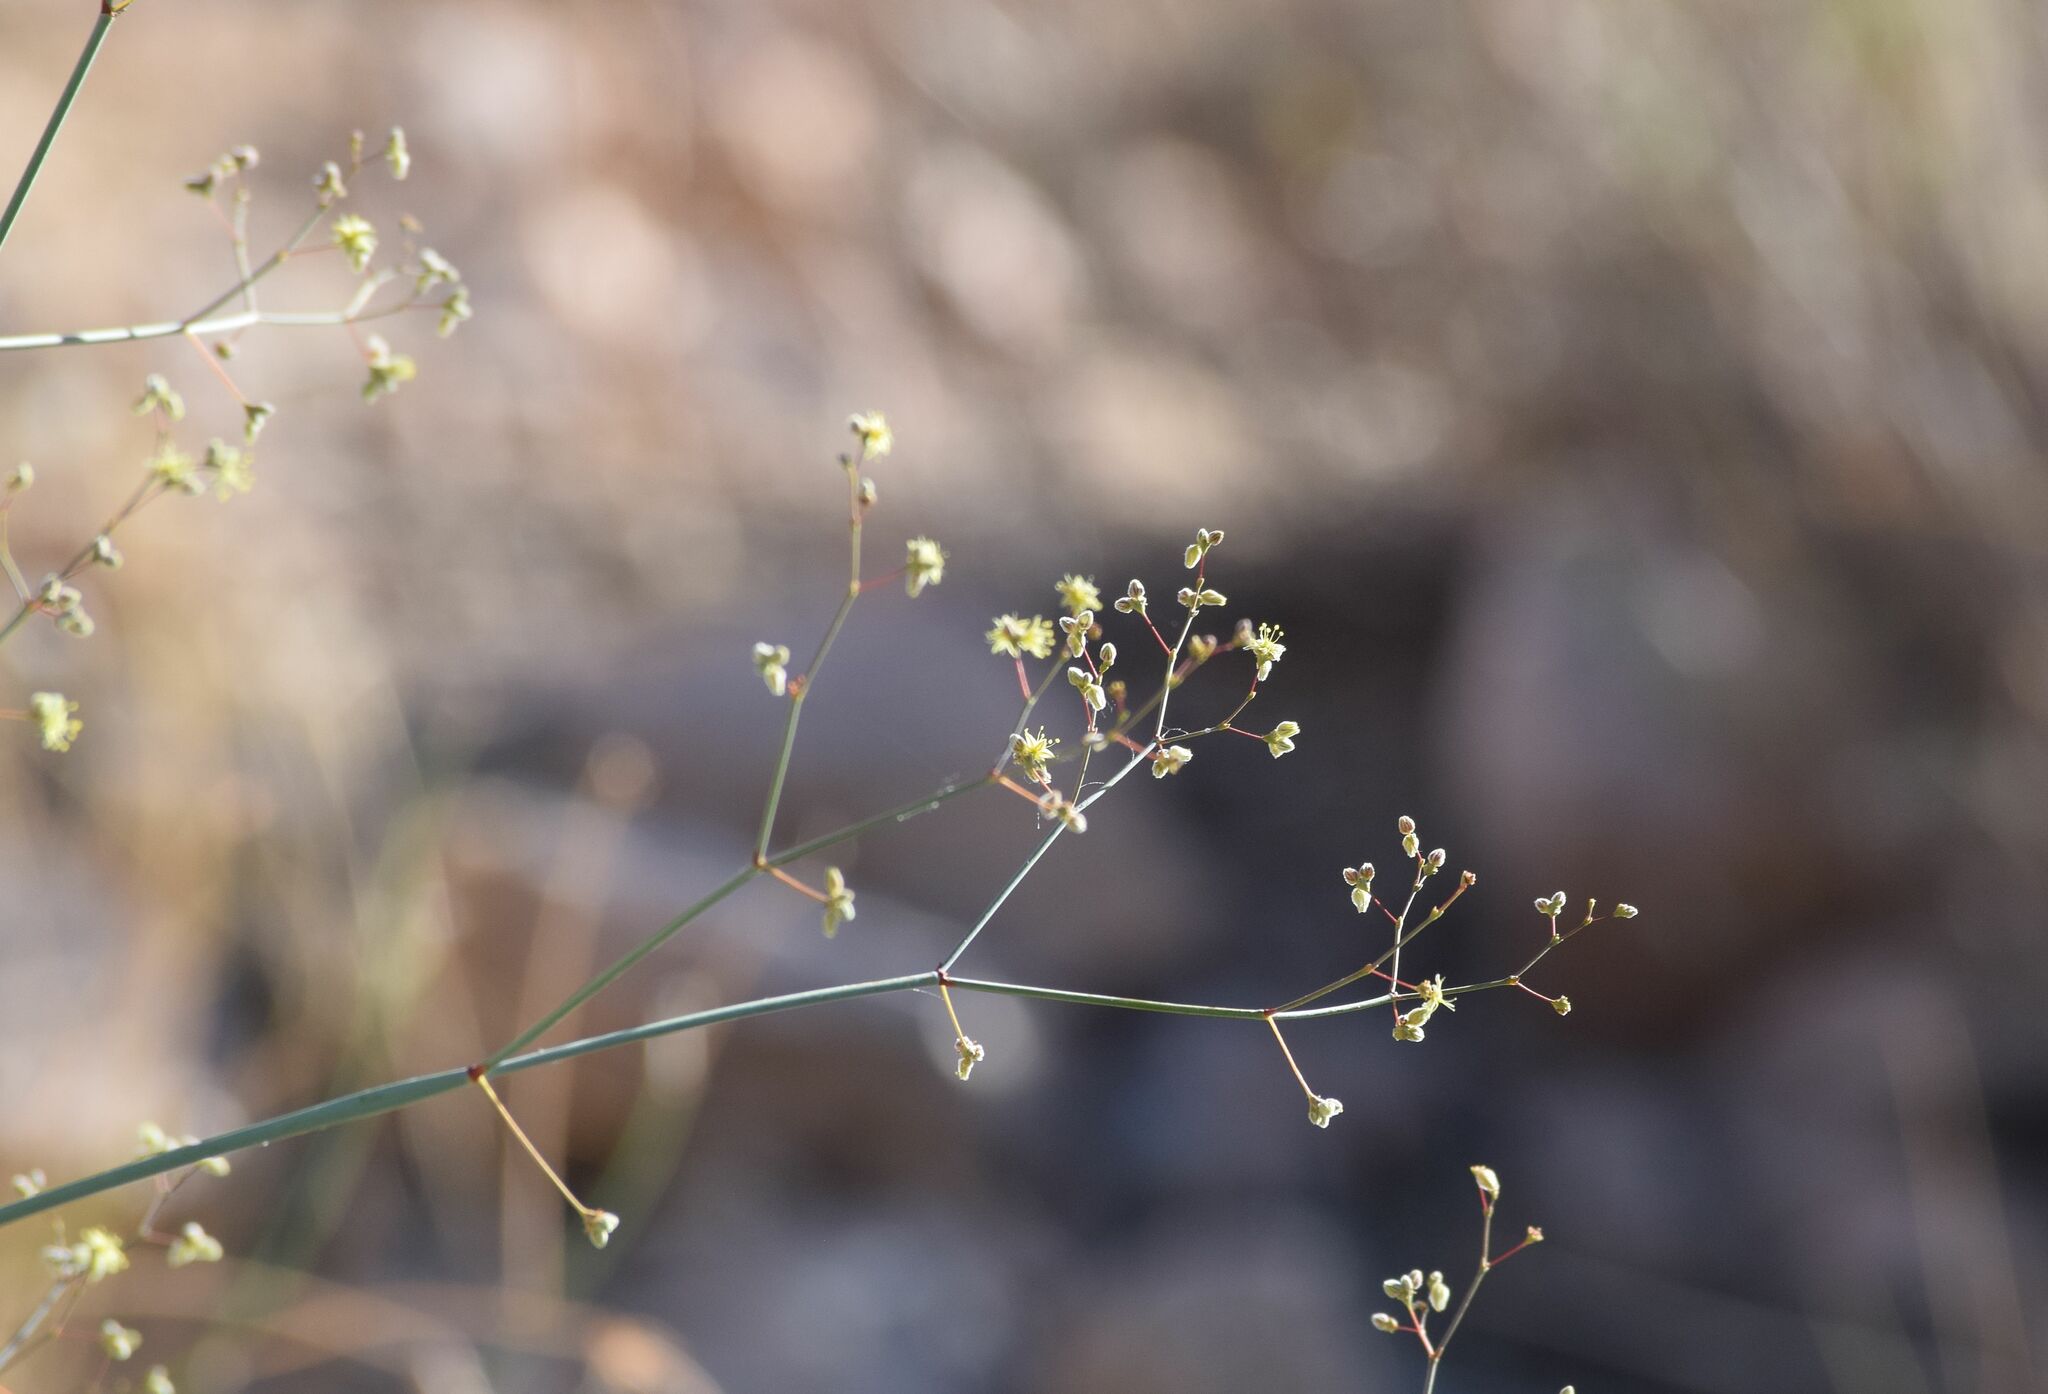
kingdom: Plantae
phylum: Tracheophyta
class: Magnoliopsida
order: Caryophyllales
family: Polygonaceae
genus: Eriogonum
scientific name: Eriogonum inflatum
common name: Desert trumpet
